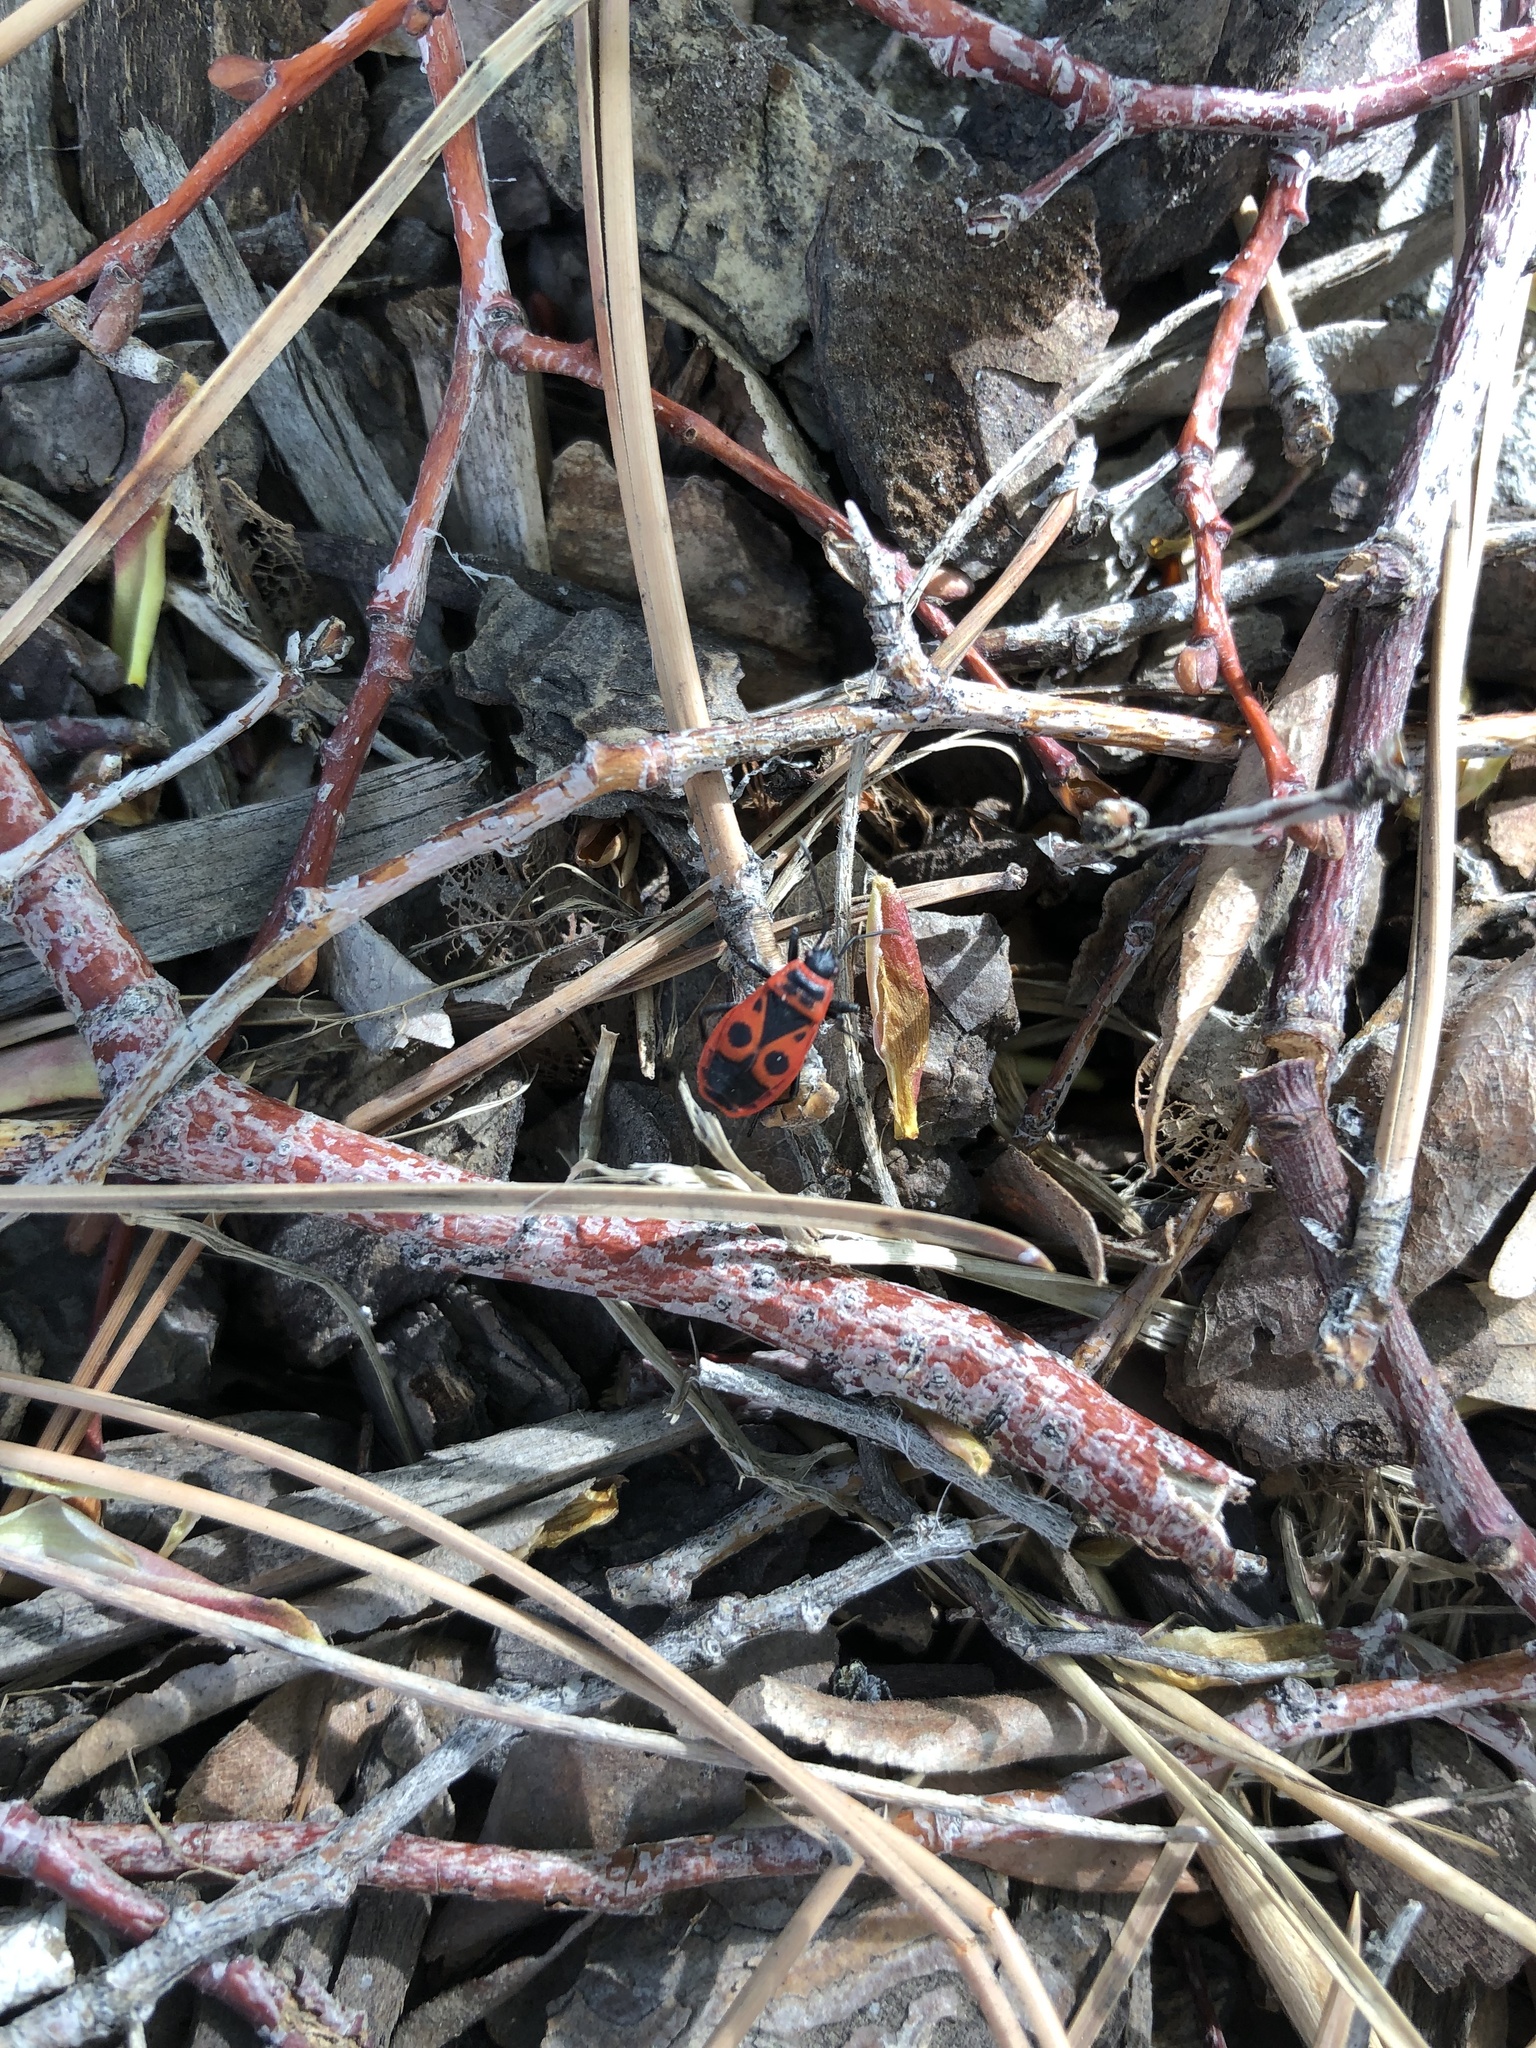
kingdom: Animalia
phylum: Arthropoda
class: Insecta
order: Hemiptera
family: Pyrrhocoridae
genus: Pyrrhocoris
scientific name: Pyrrhocoris apterus
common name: Firebug
